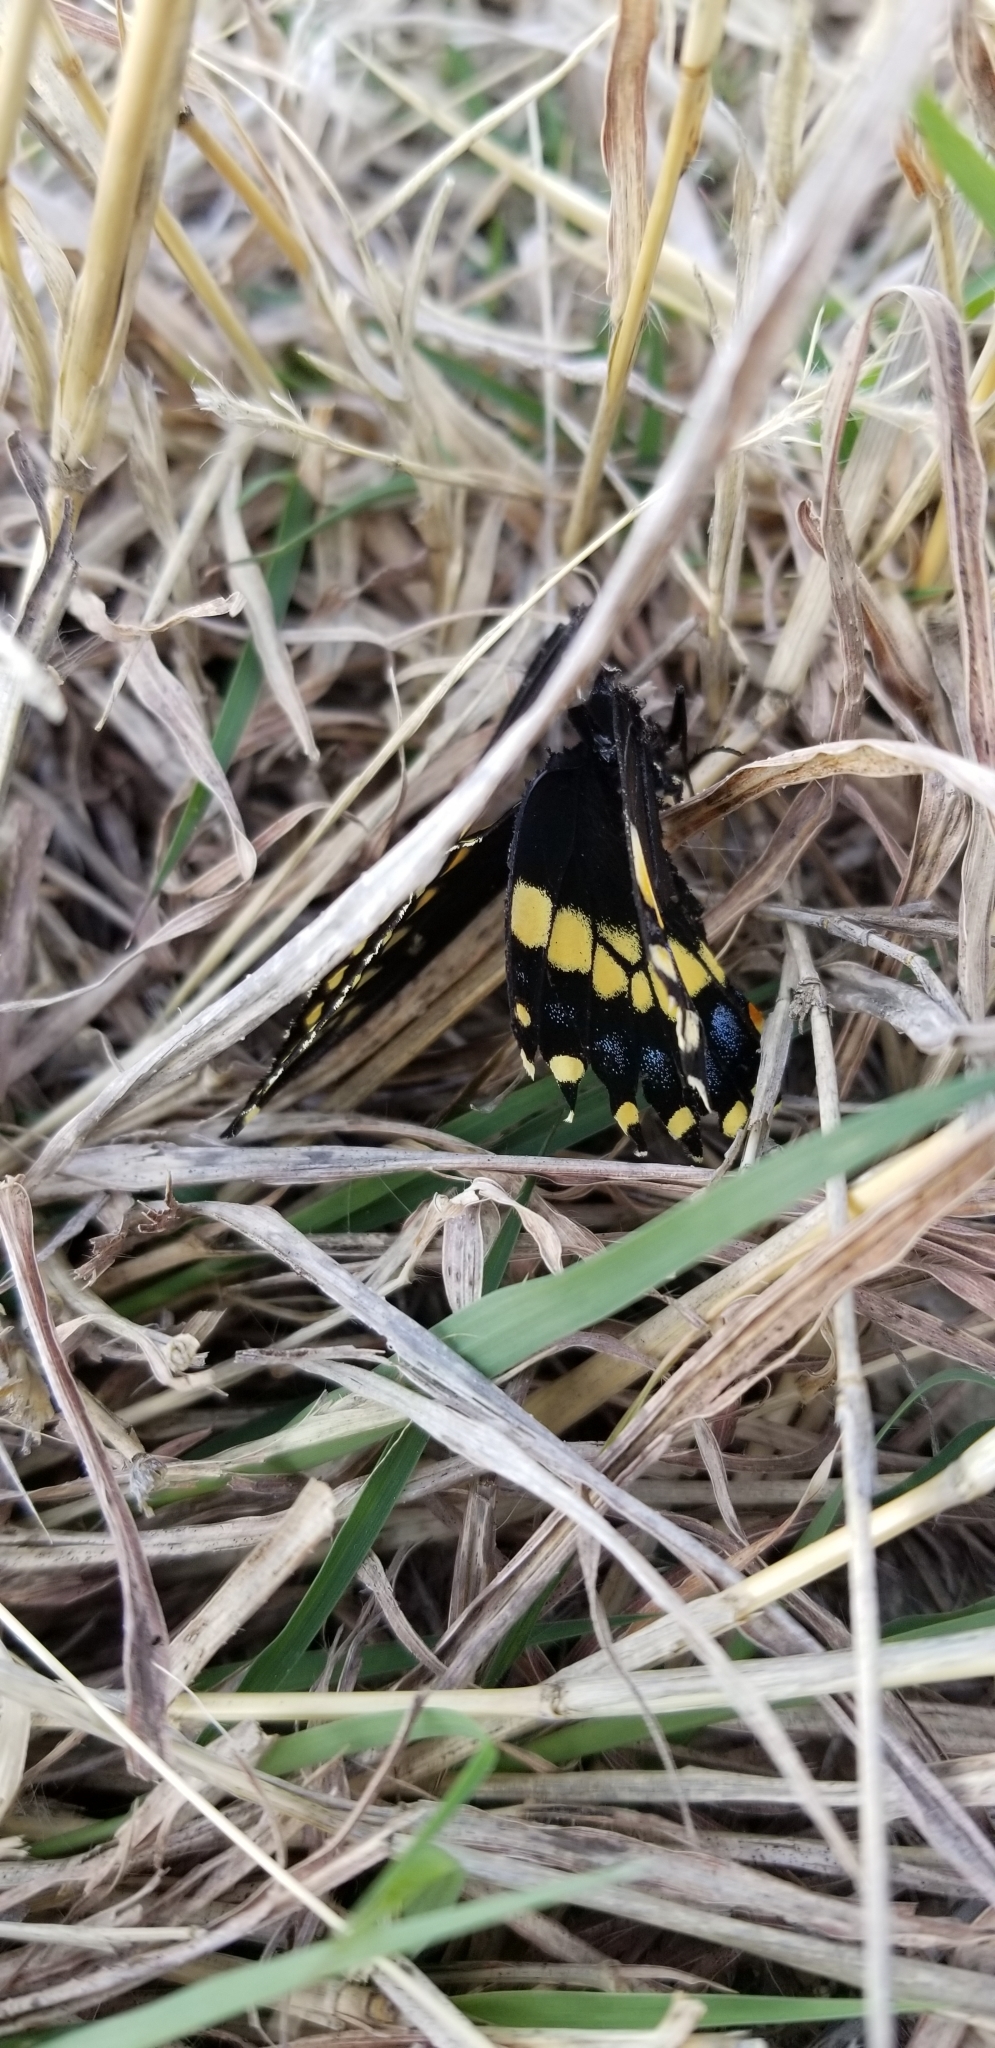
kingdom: Animalia
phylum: Arthropoda
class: Insecta
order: Lepidoptera
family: Papilionidae
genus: Papilio
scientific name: Papilio polyxenes
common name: Black swallowtail
